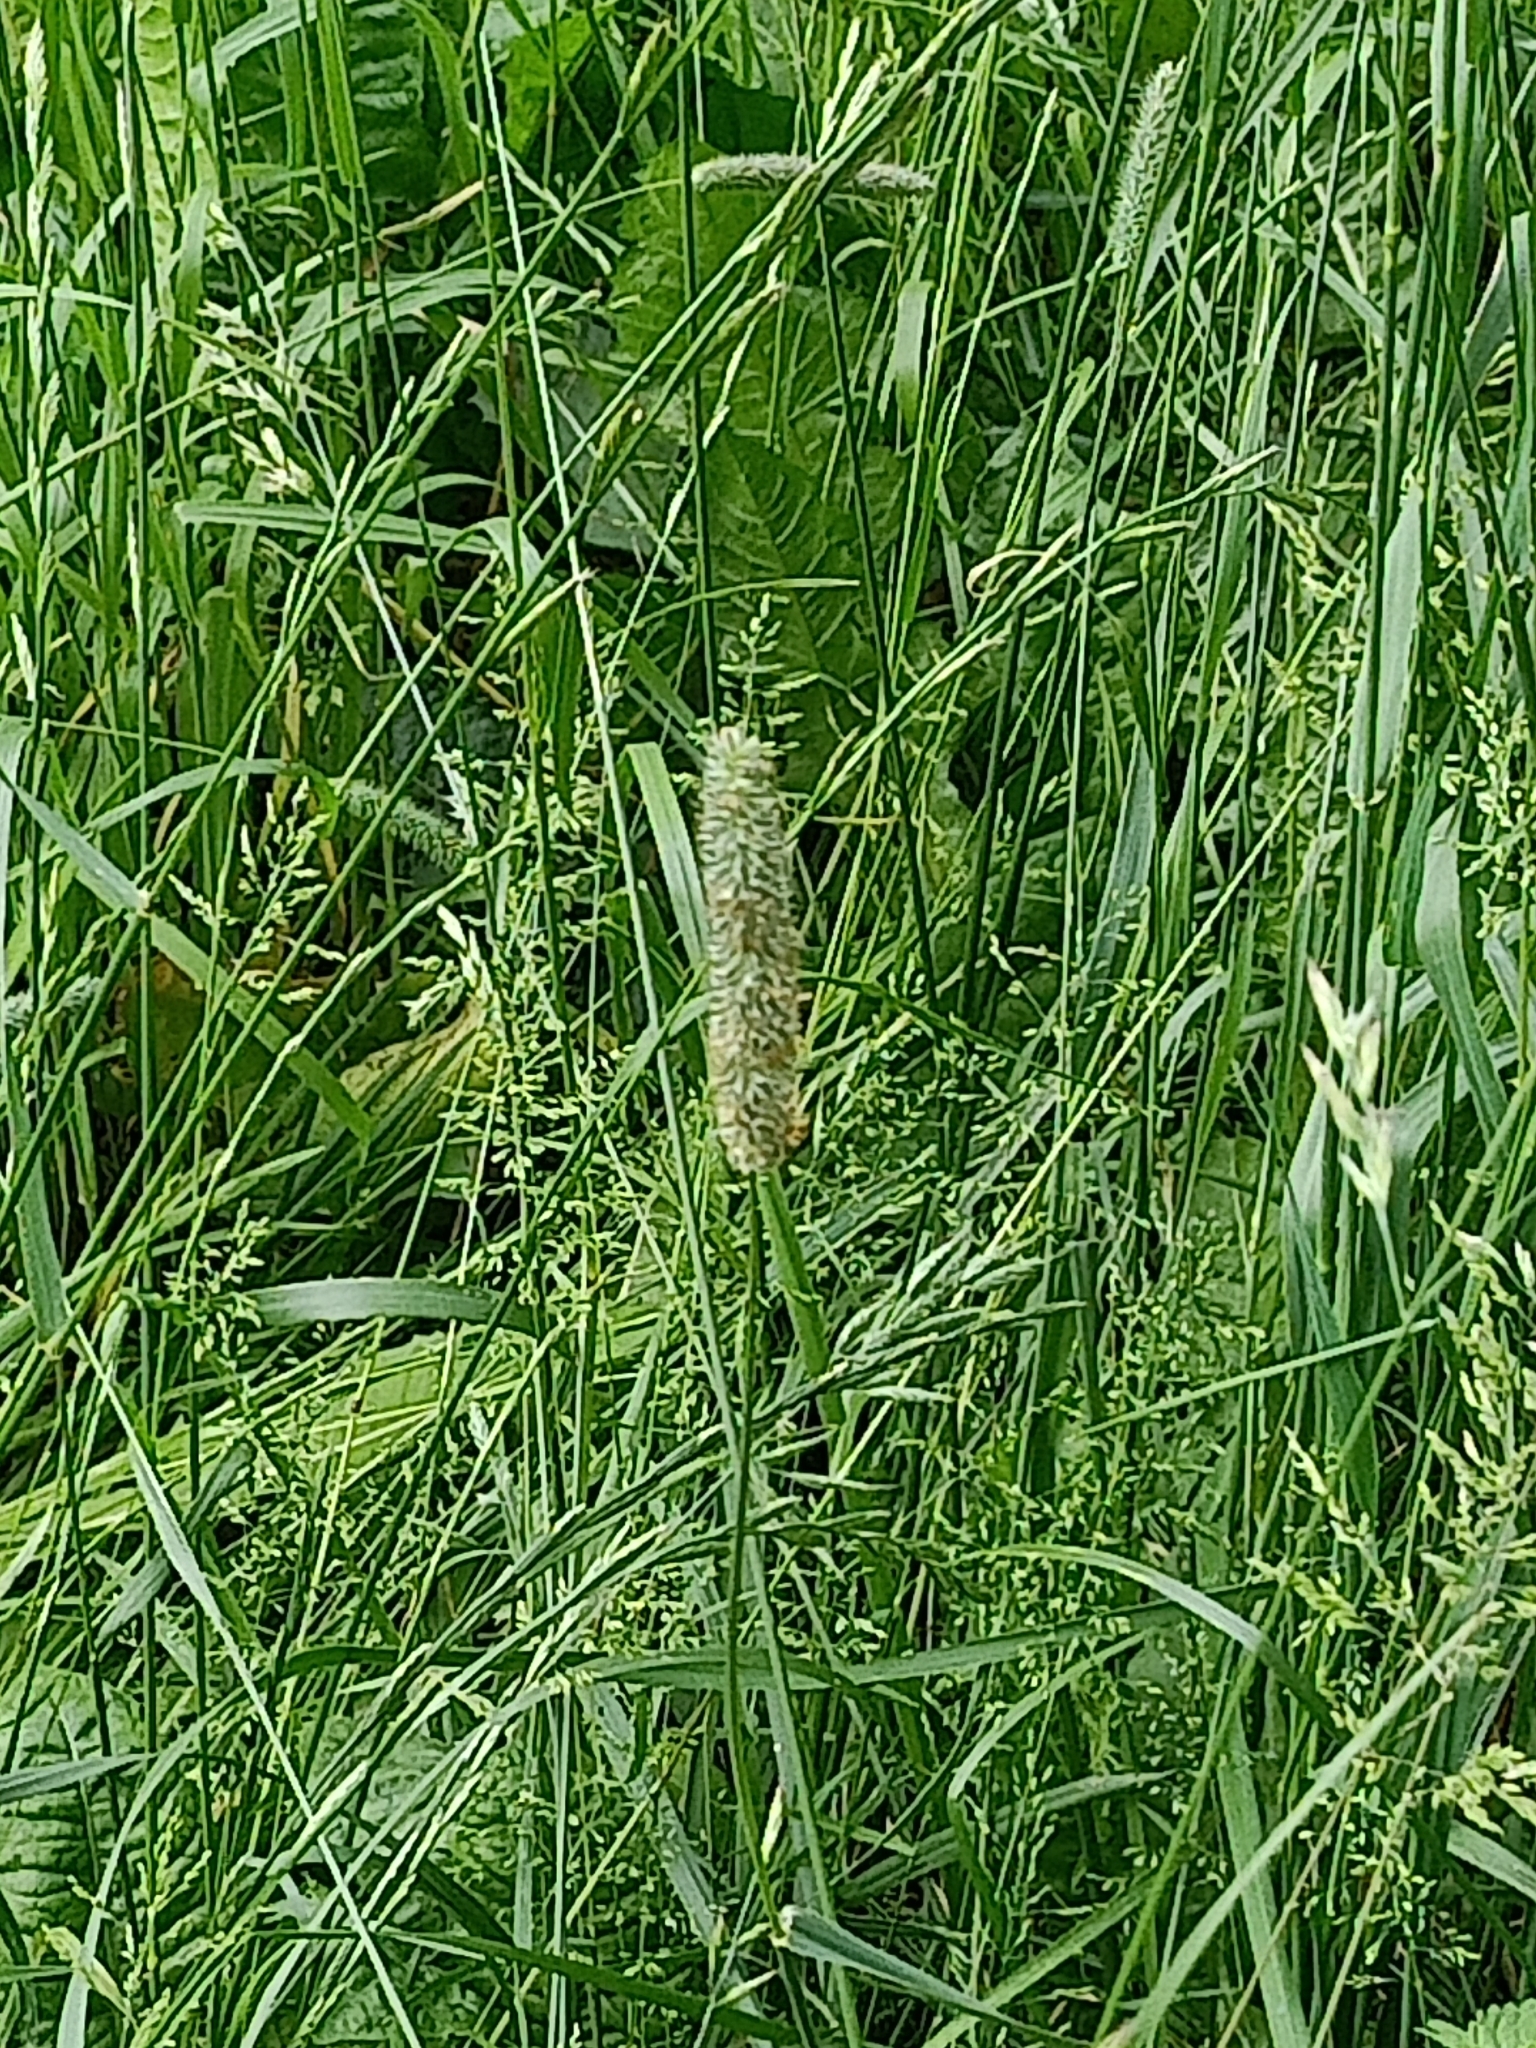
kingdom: Plantae
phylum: Tracheophyta
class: Liliopsida
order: Poales
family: Poaceae
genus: Phleum
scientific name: Phleum pratense
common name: Timothy grass
